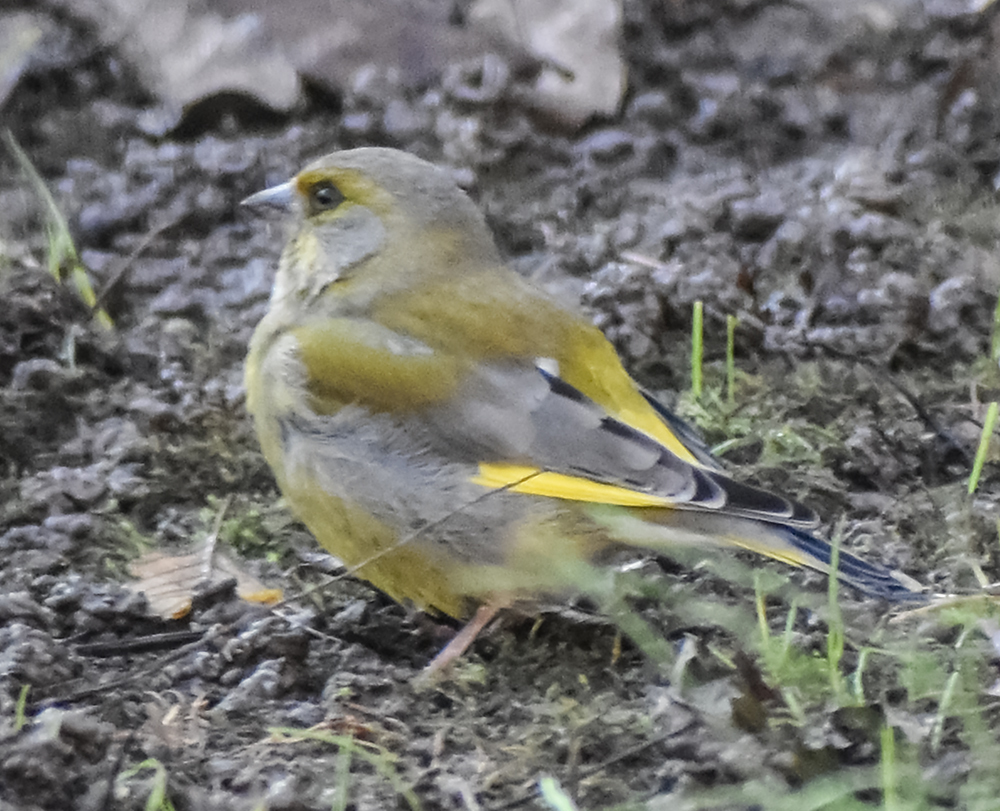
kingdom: Plantae
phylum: Tracheophyta
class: Liliopsida
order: Poales
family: Poaceae
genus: Chloris
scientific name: Chloris chloris
